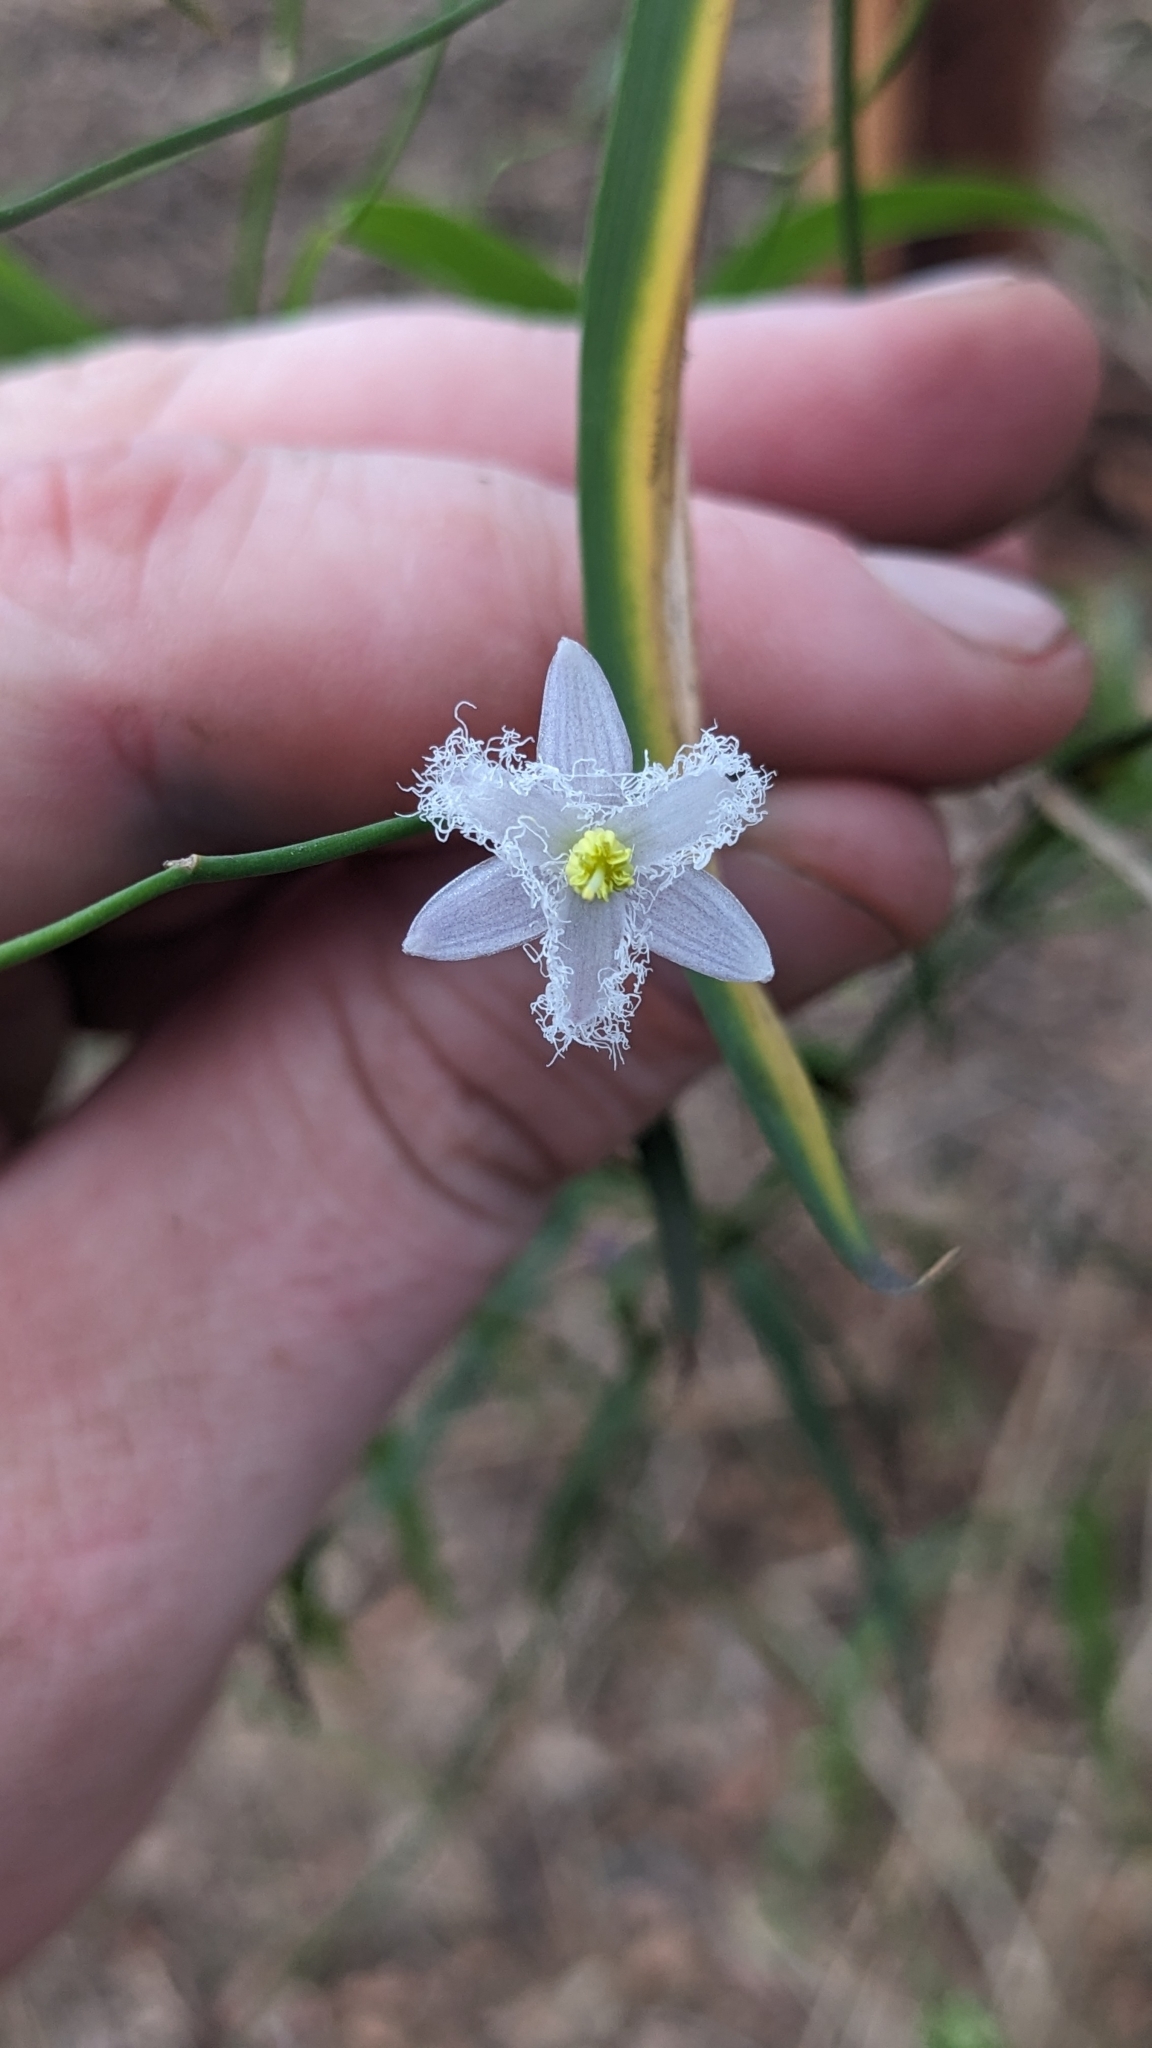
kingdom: Plantae
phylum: Tracheophyta
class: Liliopsida
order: Asparagales
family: Asparagaceae
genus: Eustrephus
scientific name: Eustrephus latifolius
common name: Orangevine
